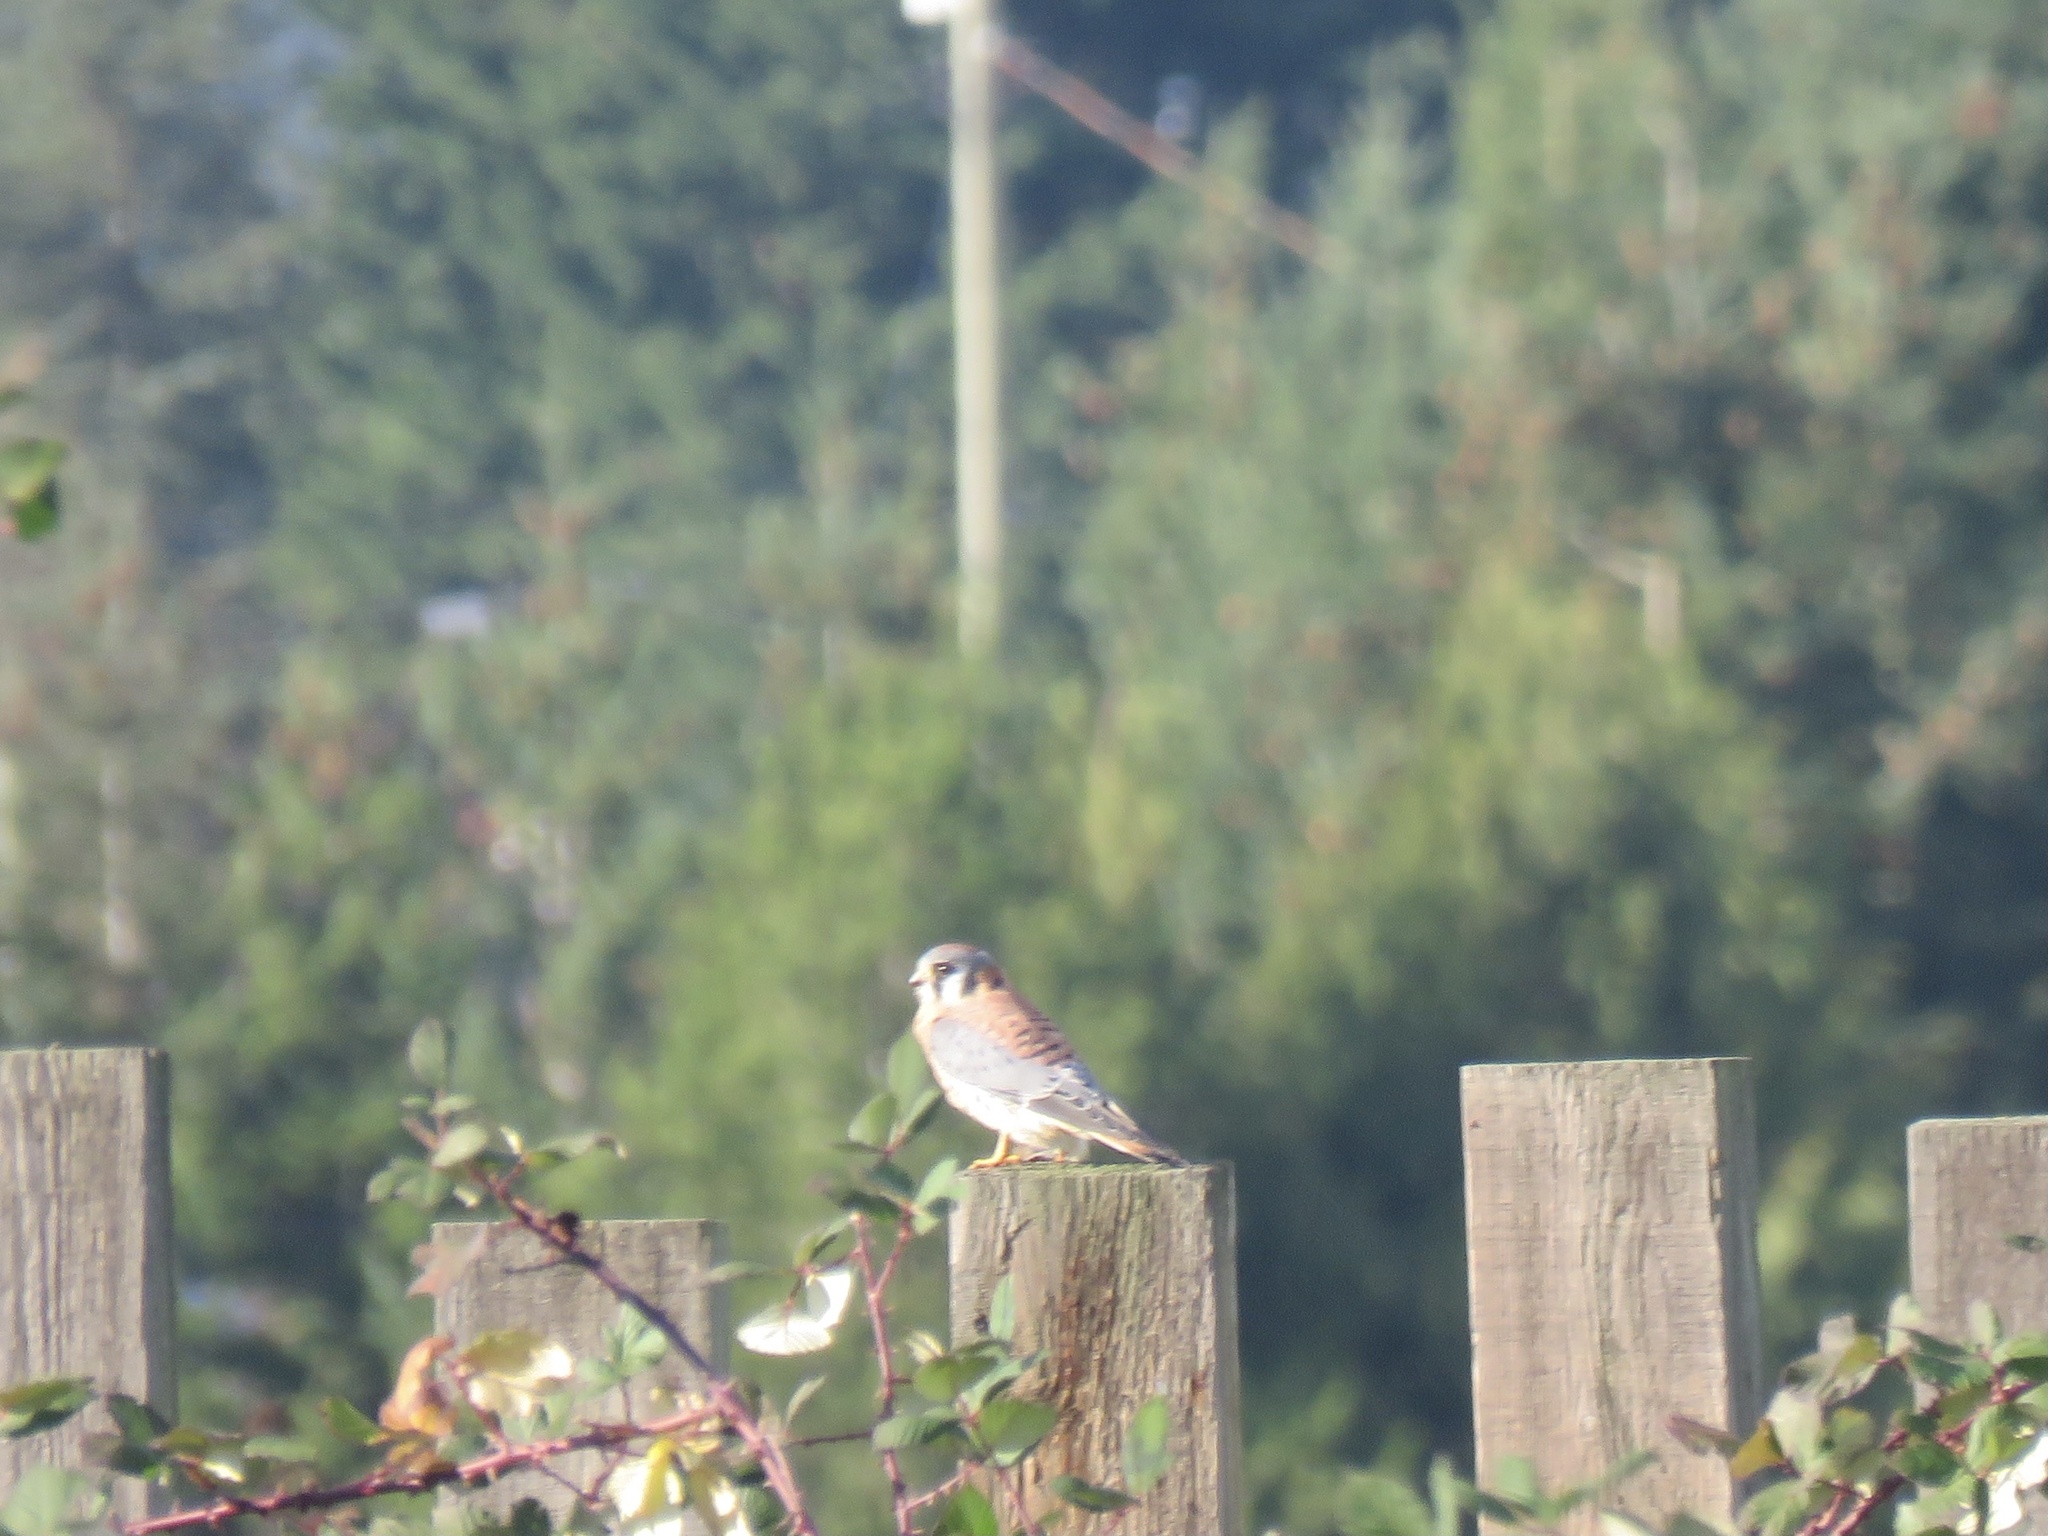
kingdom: Animalia
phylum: Chordata
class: Aves
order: Falconiformes
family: Falconidae
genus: Falco
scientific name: Falco sparverius
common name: American kestrel
